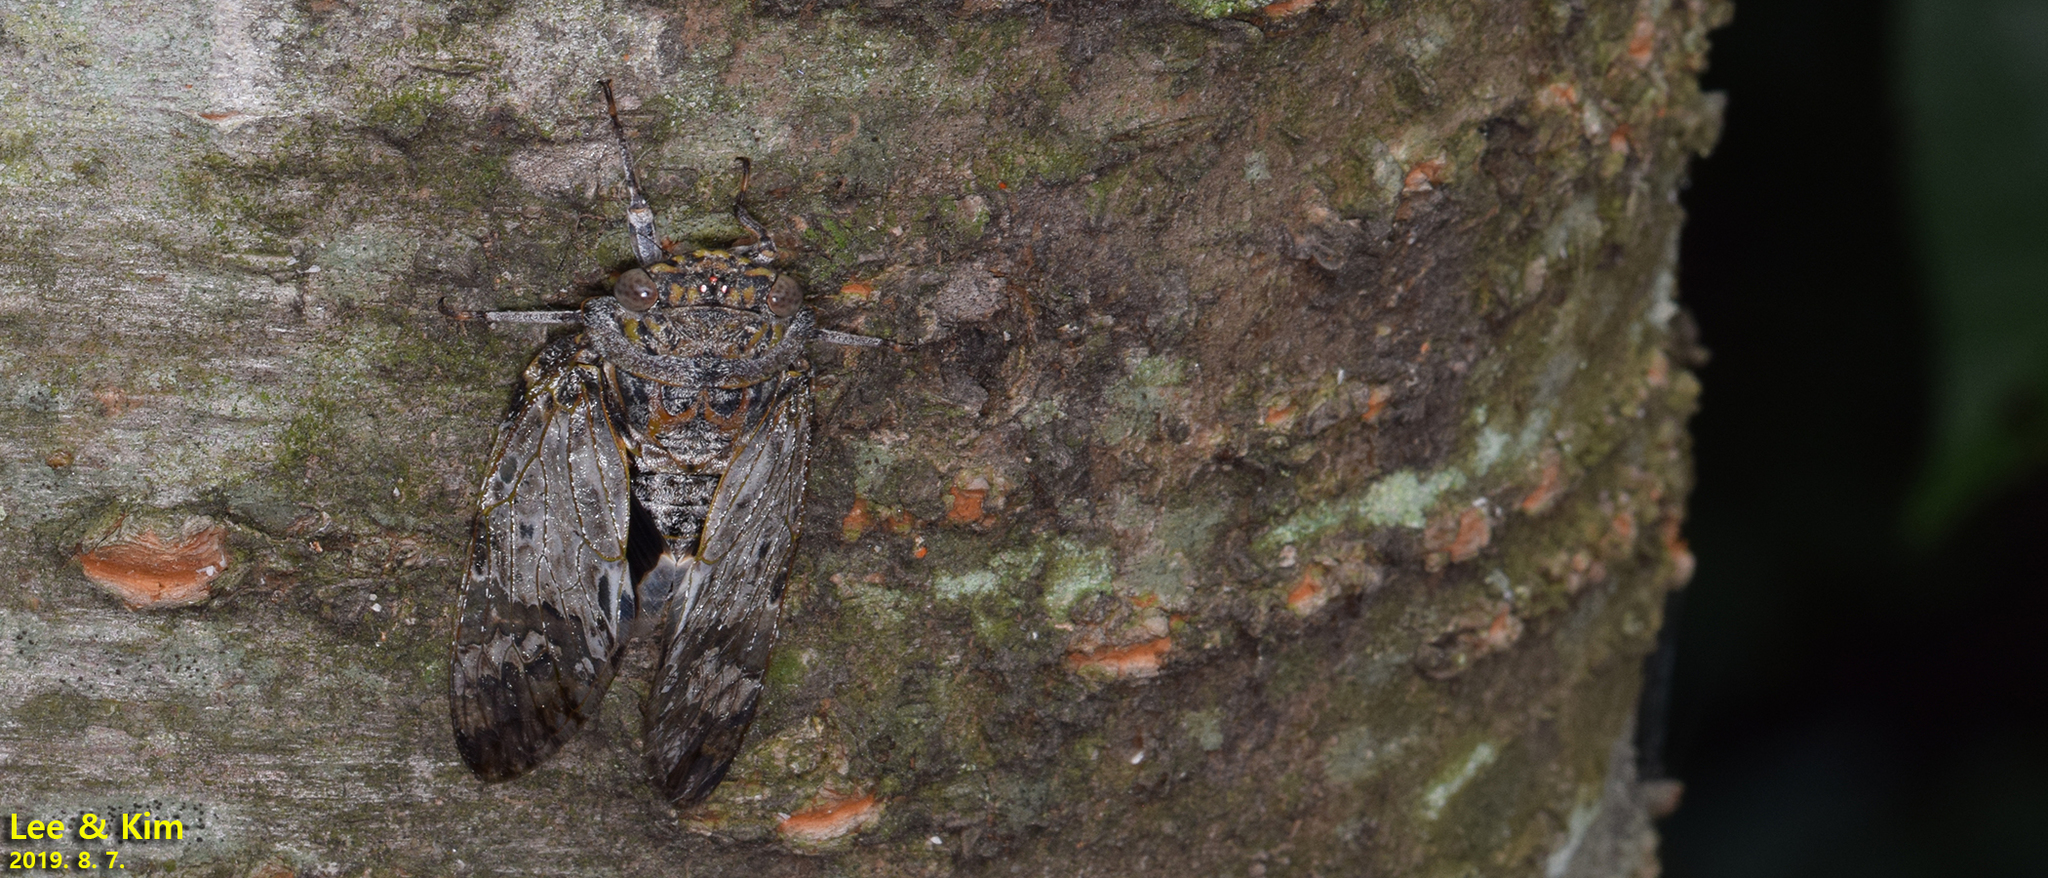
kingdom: Animalia
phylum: Arthropoda
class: Insecta
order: Hemiptera
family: Cicadidae
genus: Platypleura
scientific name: Platypleura kaempferi
